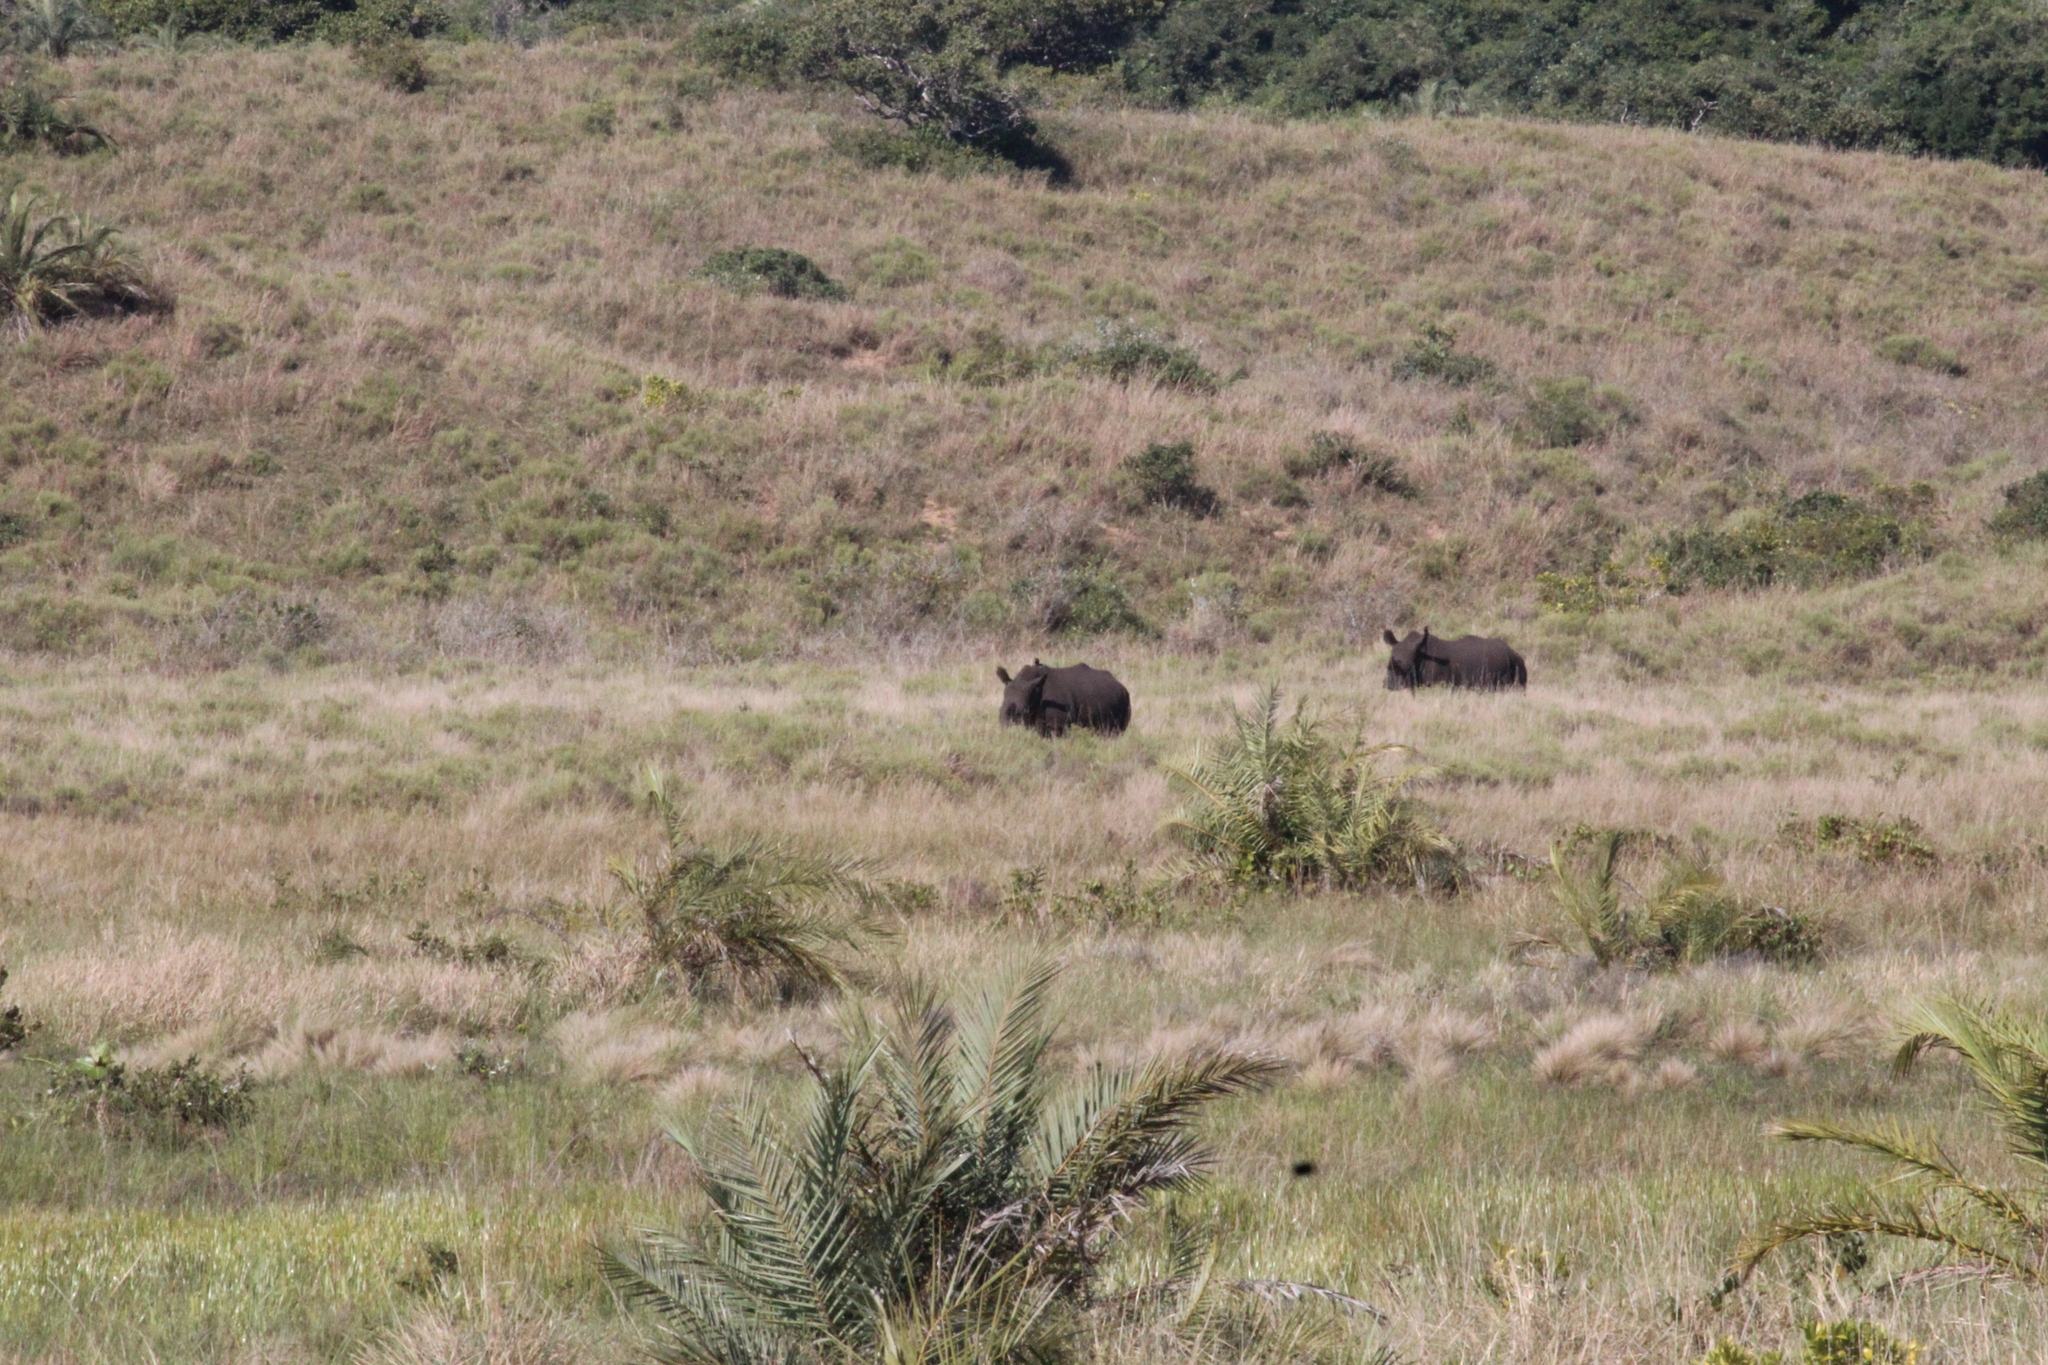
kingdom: Animalia
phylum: Chordata
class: Mammalia
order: Perissodactyla
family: Rhinocerotidae
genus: Ceratotherium
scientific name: Ceratotherium simum
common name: White rhinoceros
